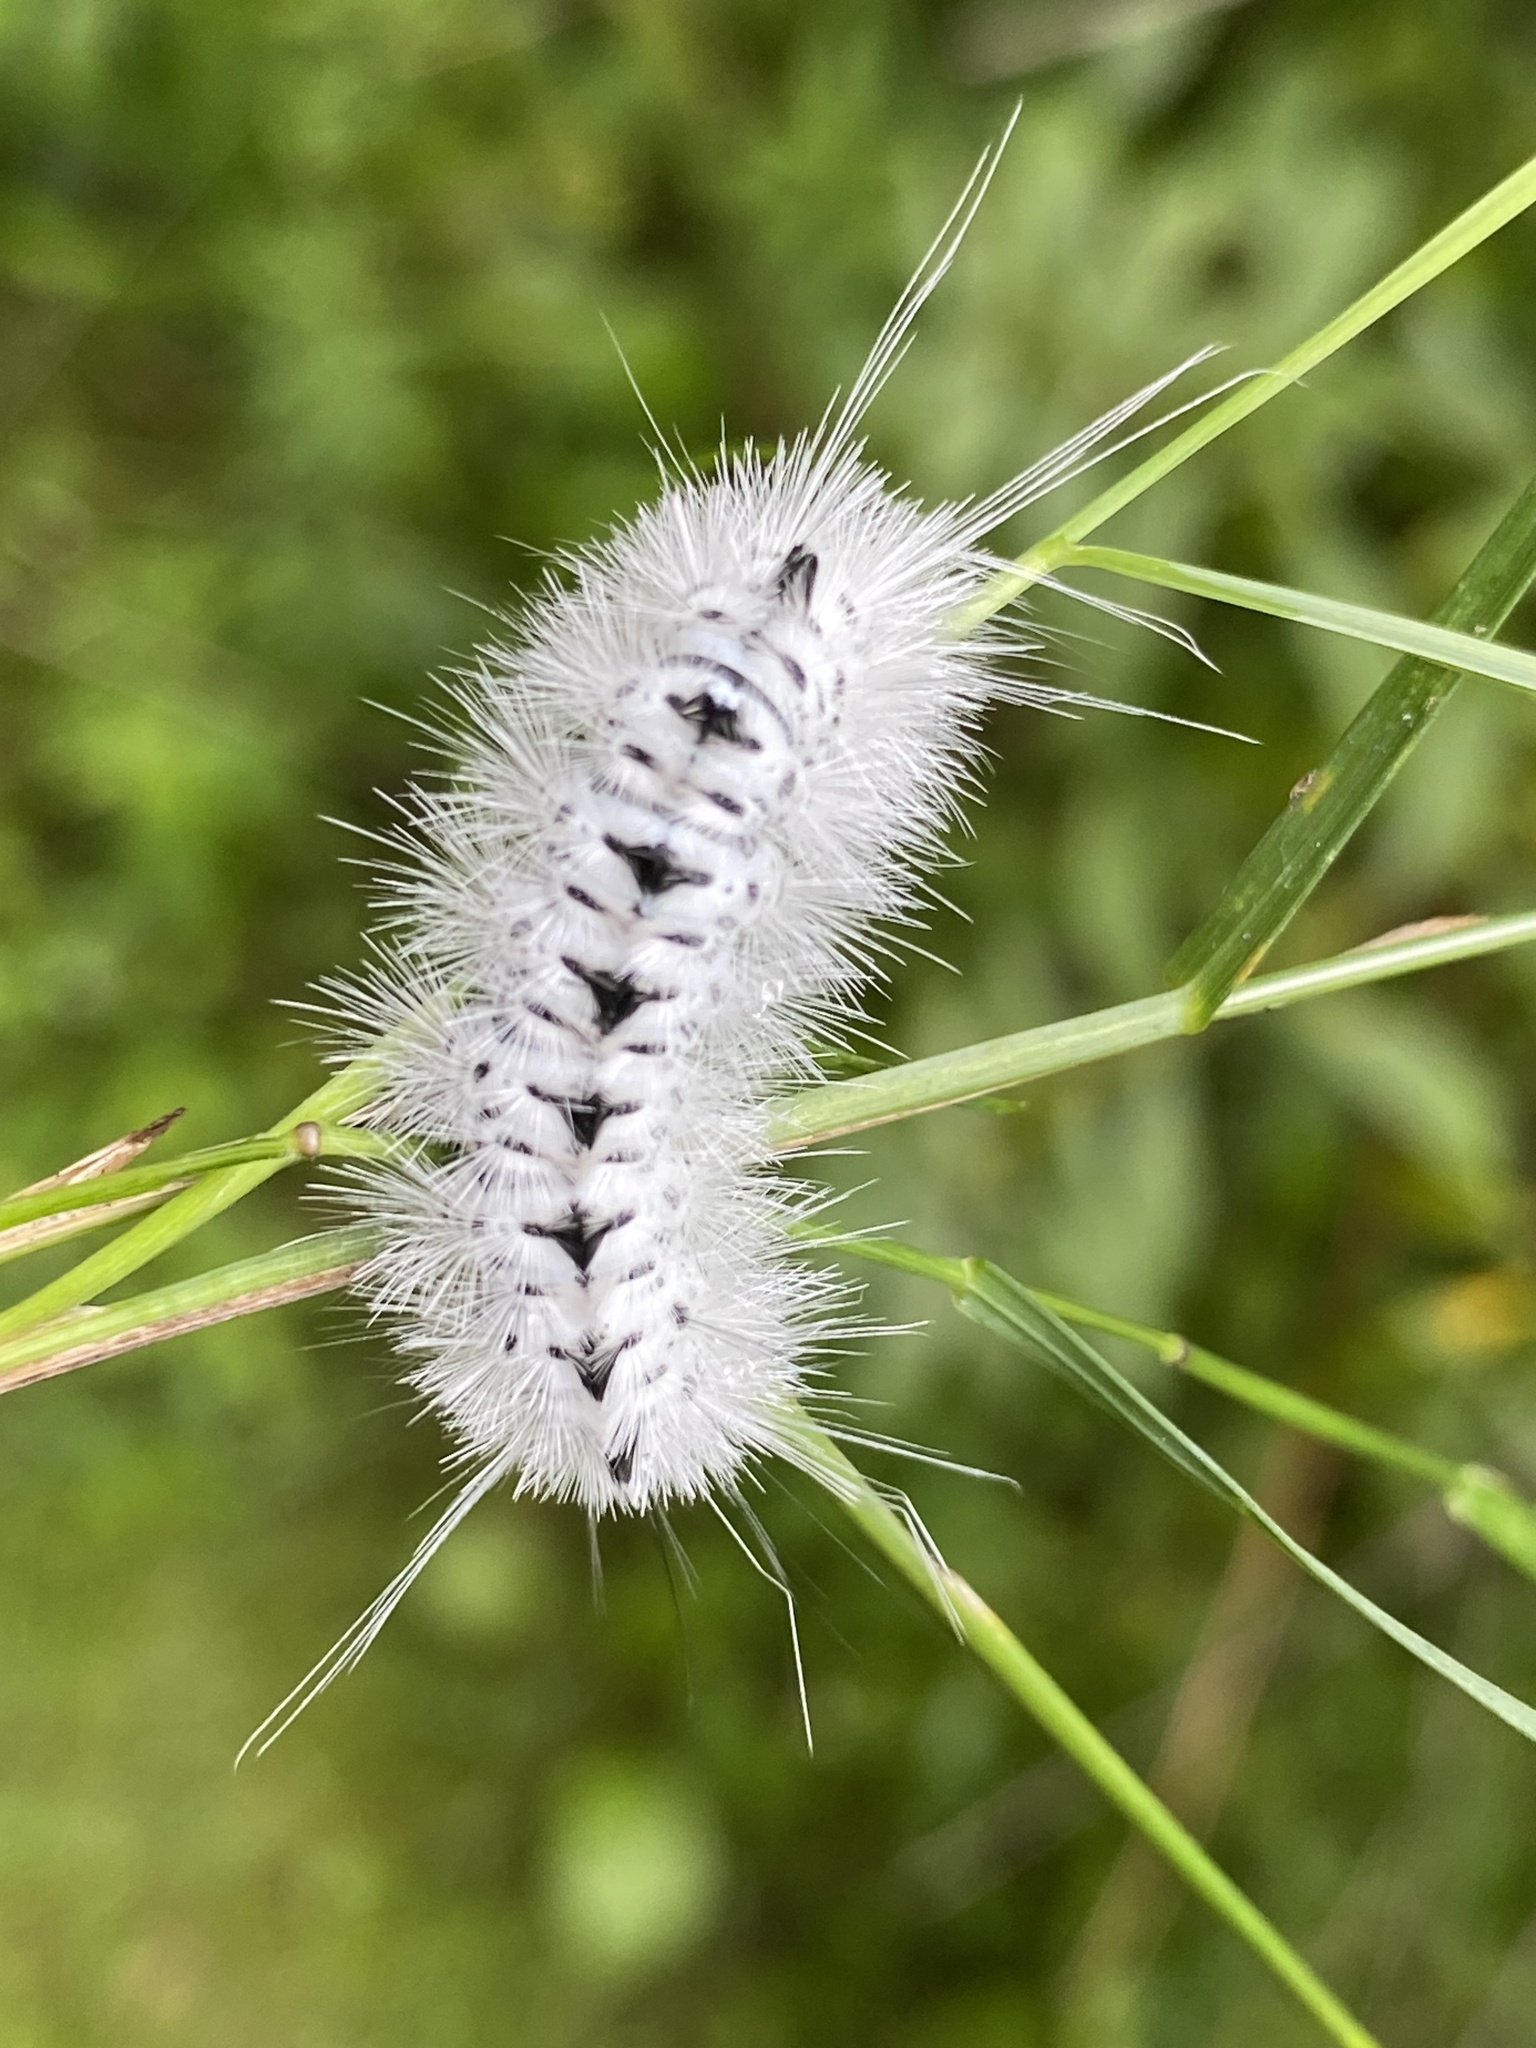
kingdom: Animalia
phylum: Arthropoda
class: Insecta
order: Lepidoptera
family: Erebidae
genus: Lophocampa
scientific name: Lophocampa caryae
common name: Hickory tussock moth
